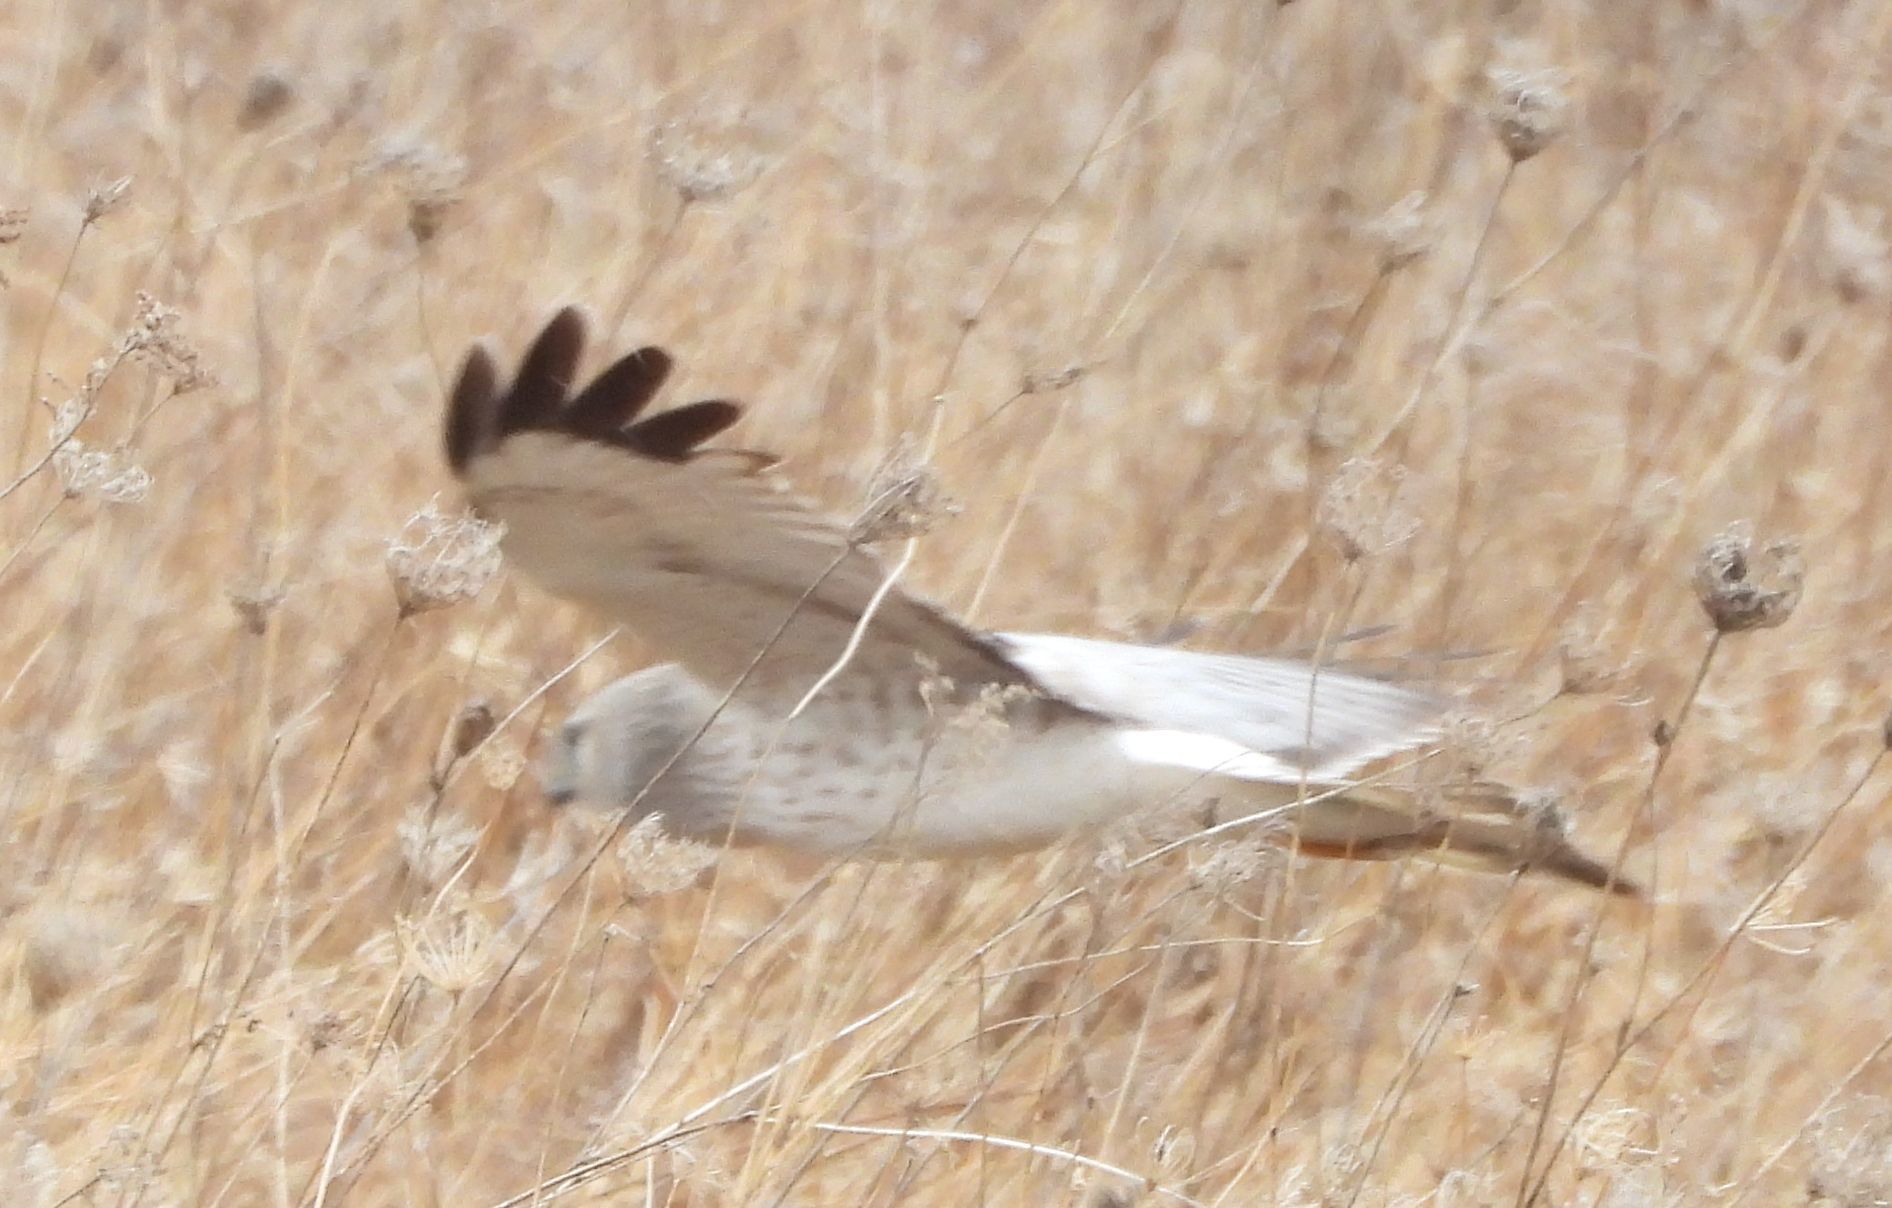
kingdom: Animalia
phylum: Chordata
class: Aves
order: Accipitriformes
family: Accipitridae
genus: Circus
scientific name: Circus cyaneus
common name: Hen harrier
